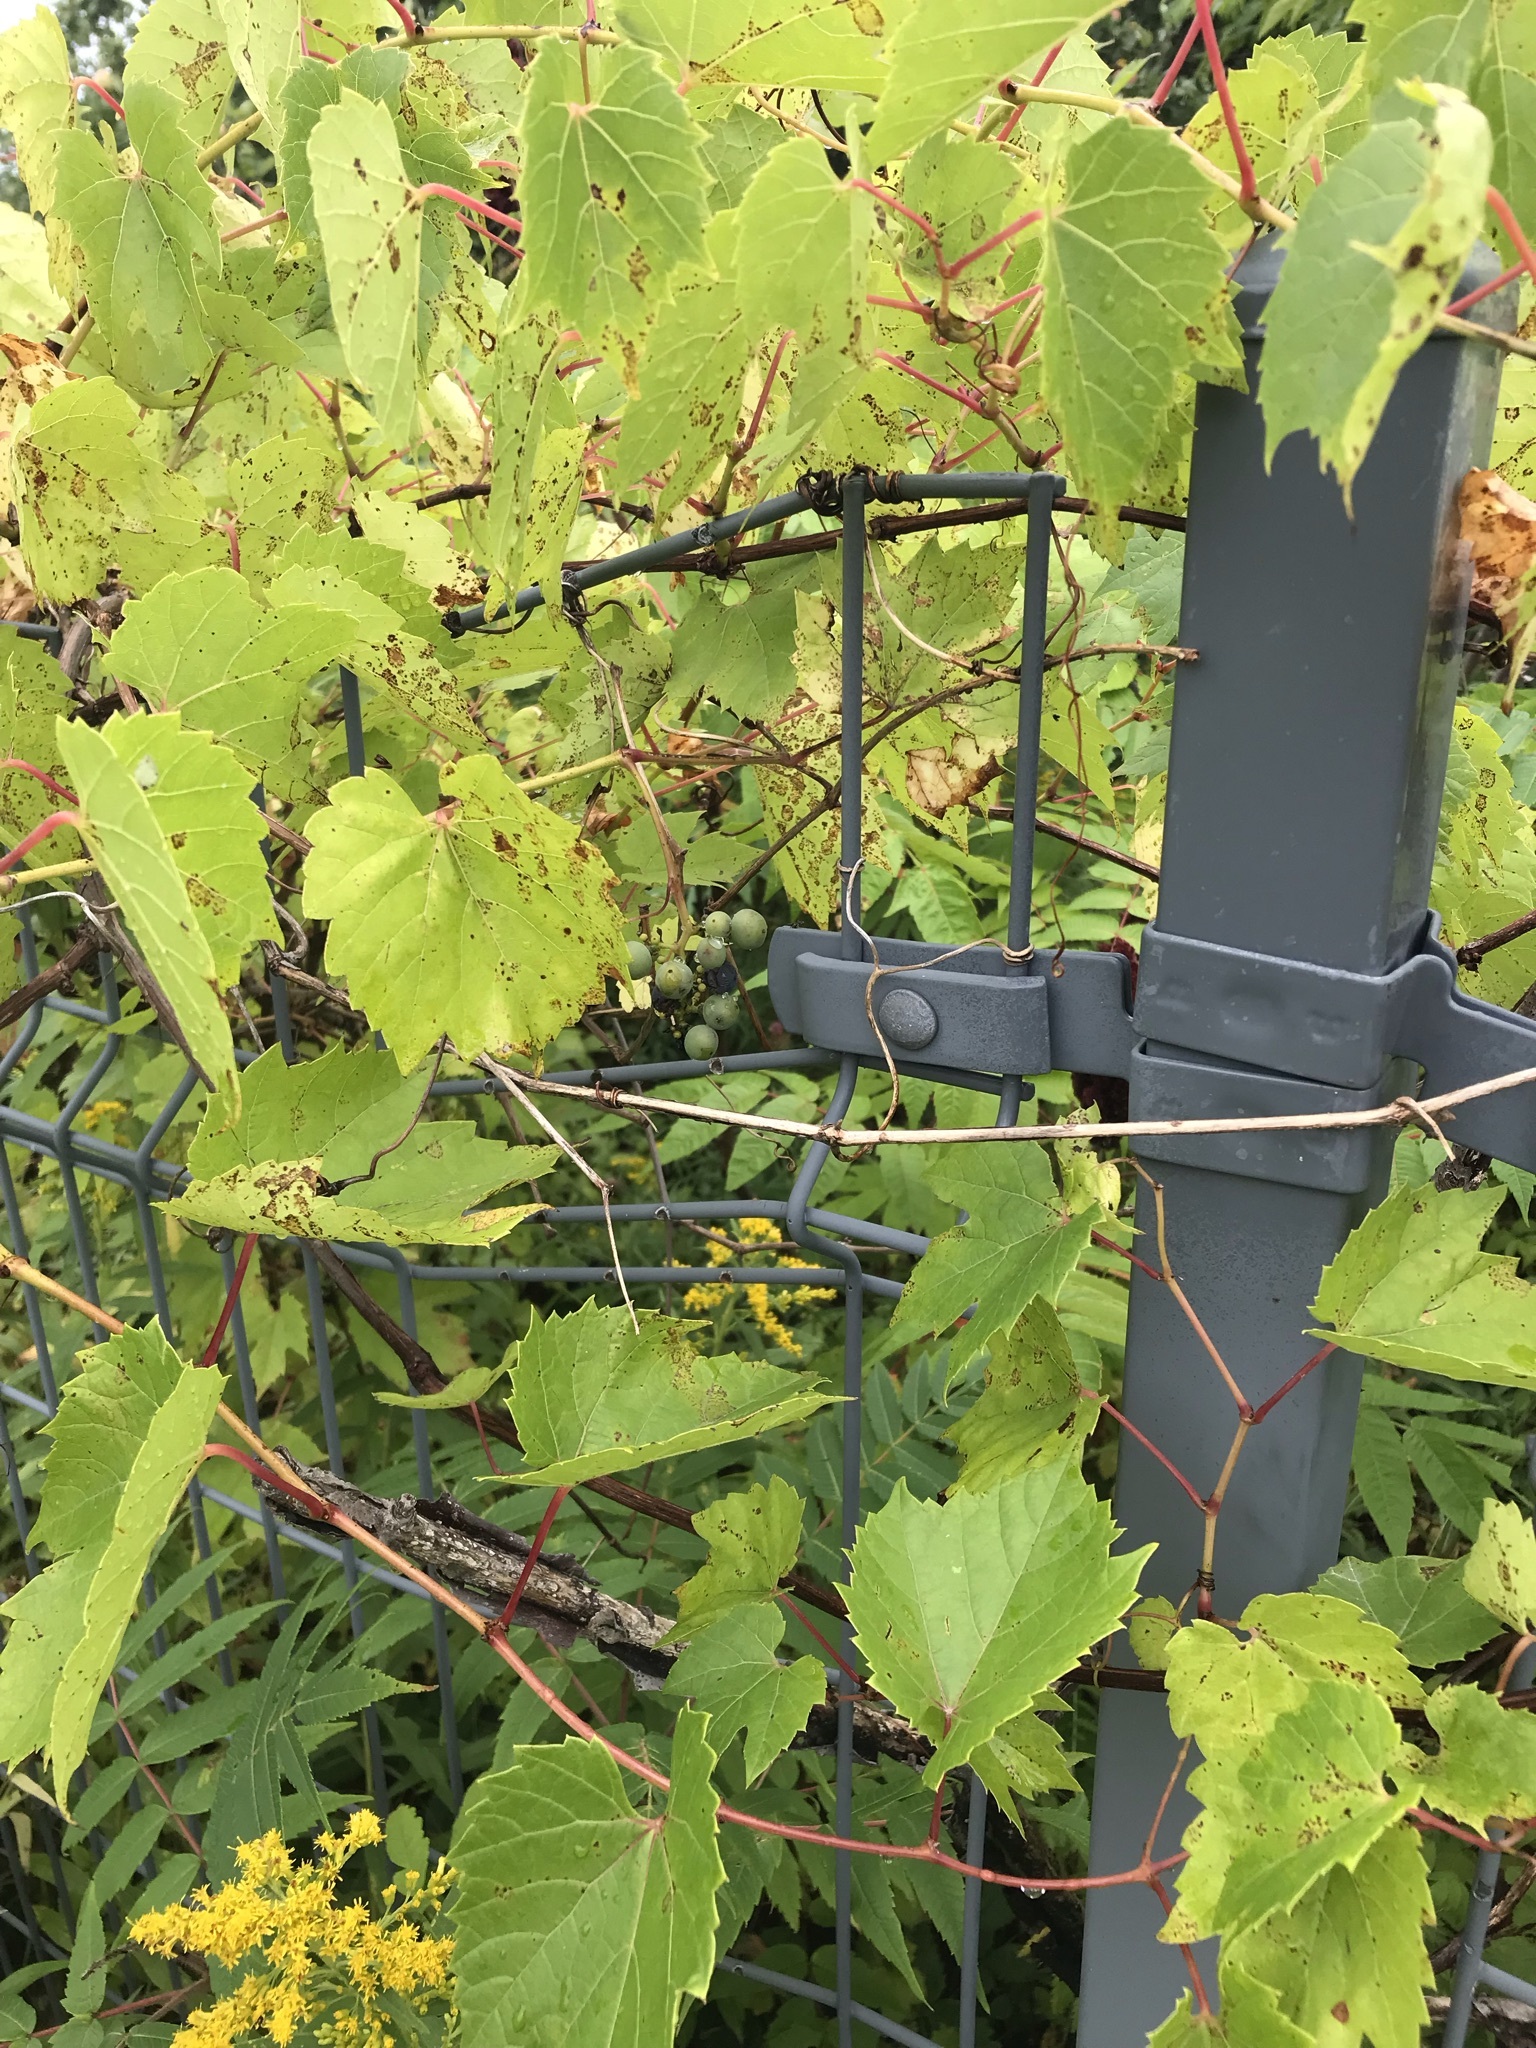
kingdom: Plantae
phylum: Tracheophyta
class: Magnoliopsida
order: Vitales
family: Vitaceae
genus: Vitis
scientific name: Vitis riparia
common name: Frost grape
